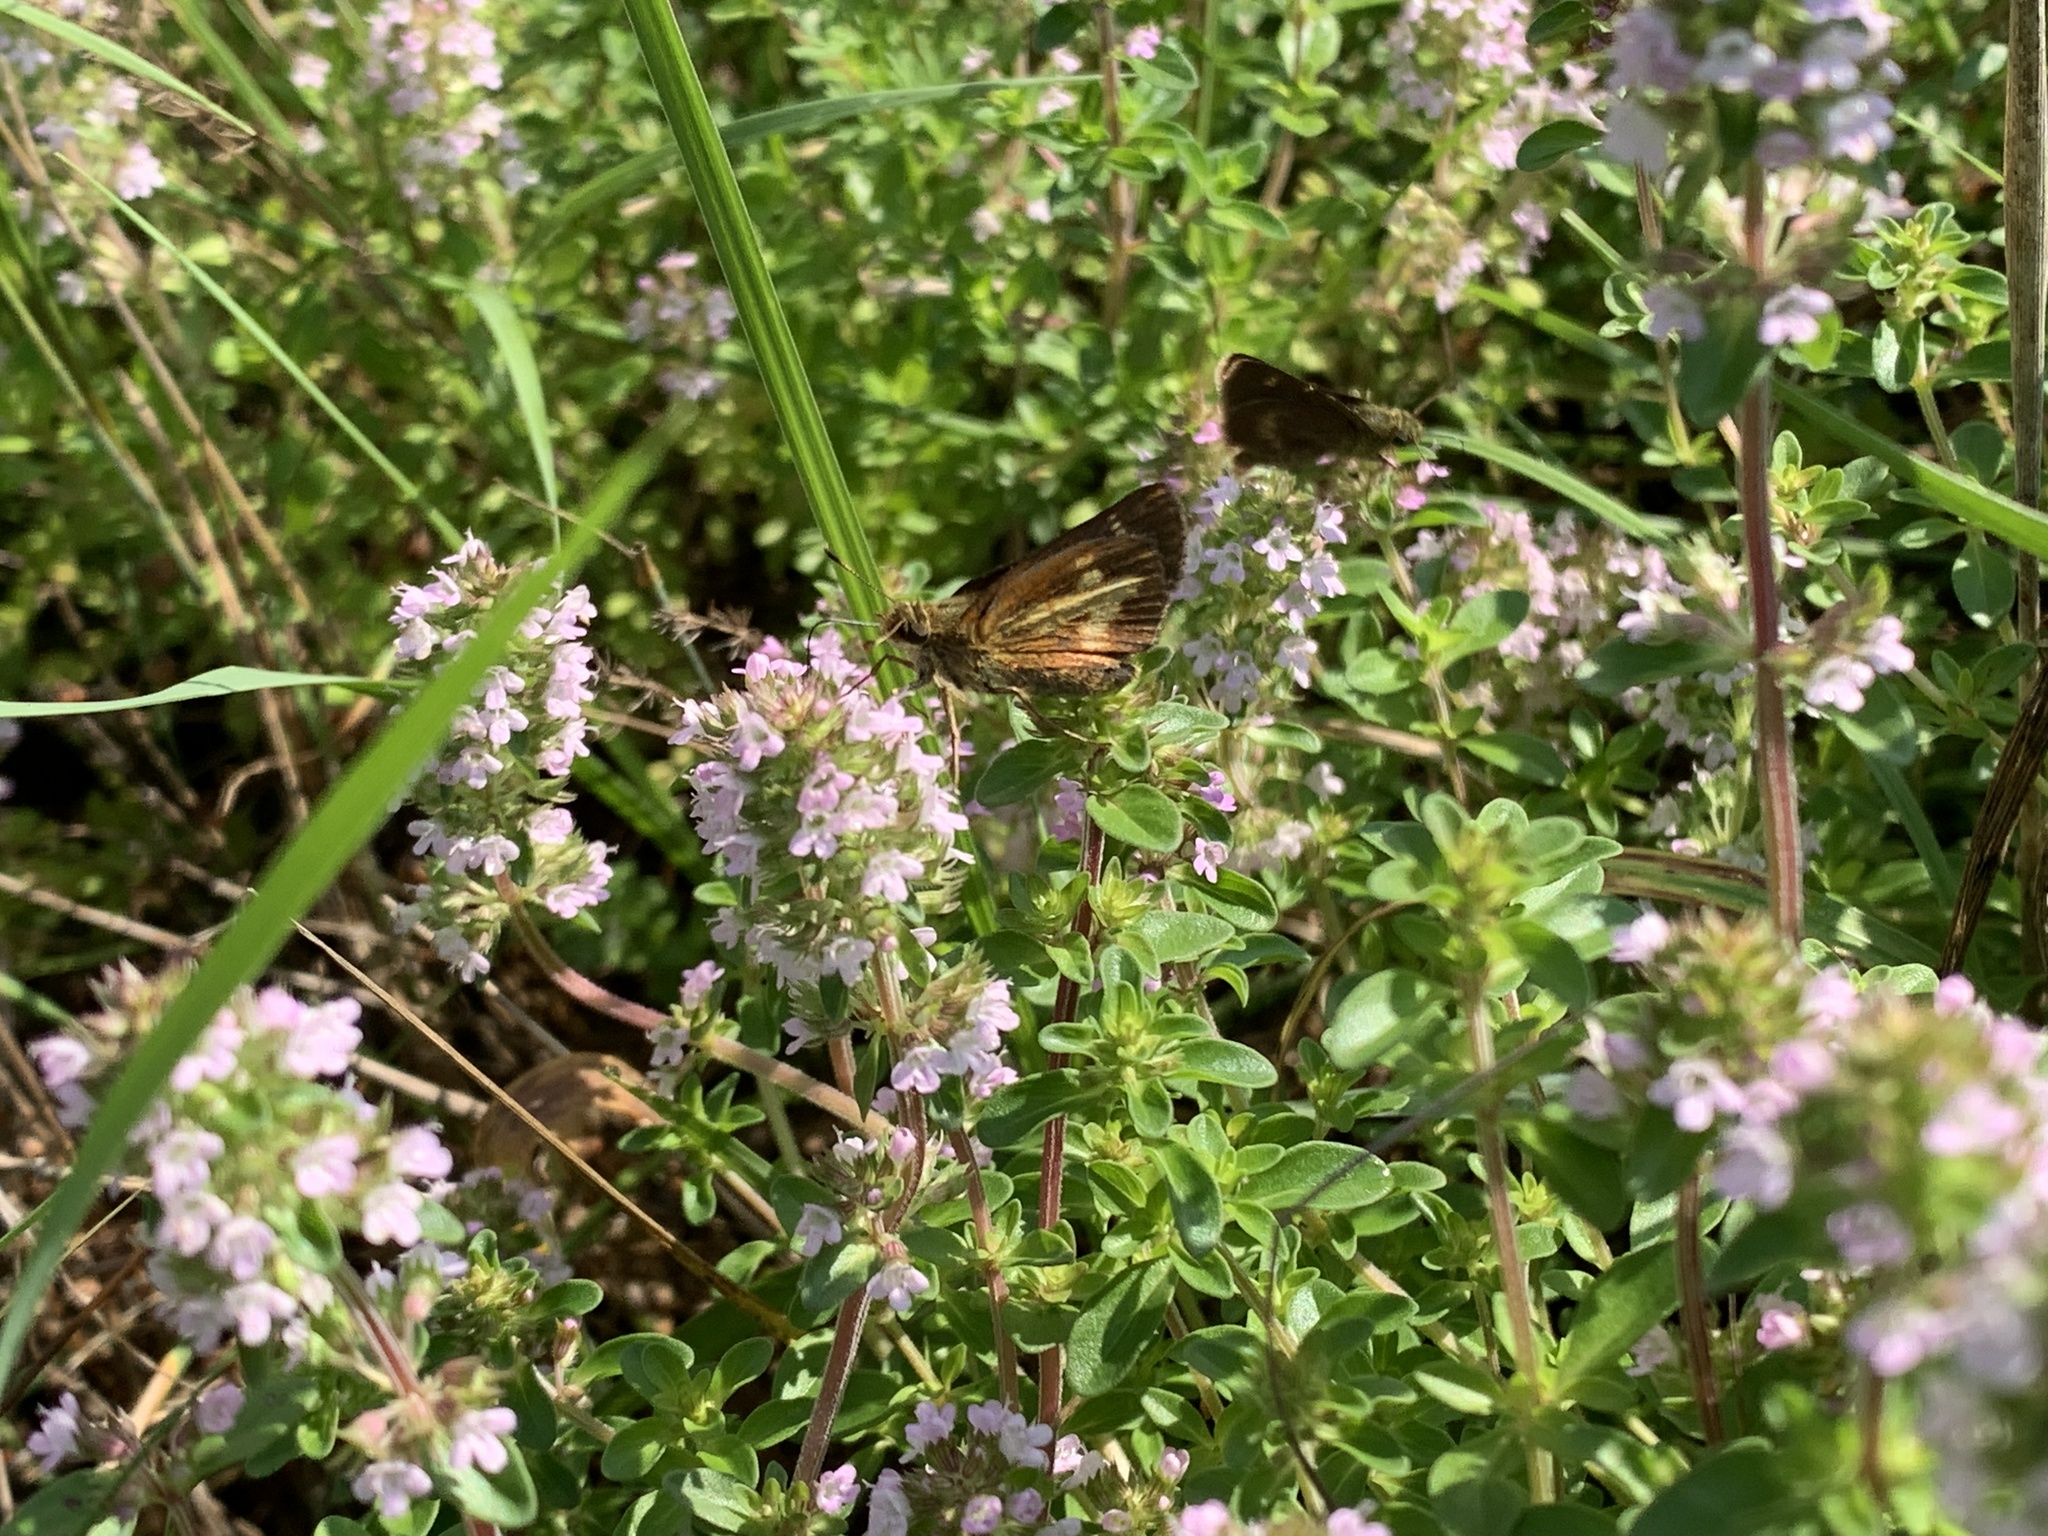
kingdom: Animalia
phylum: Arthropoda
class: Insecta
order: Lepidoptera
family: Hesperiidae
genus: Poanes
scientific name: Poanes massasoit
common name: Mulberrywing
